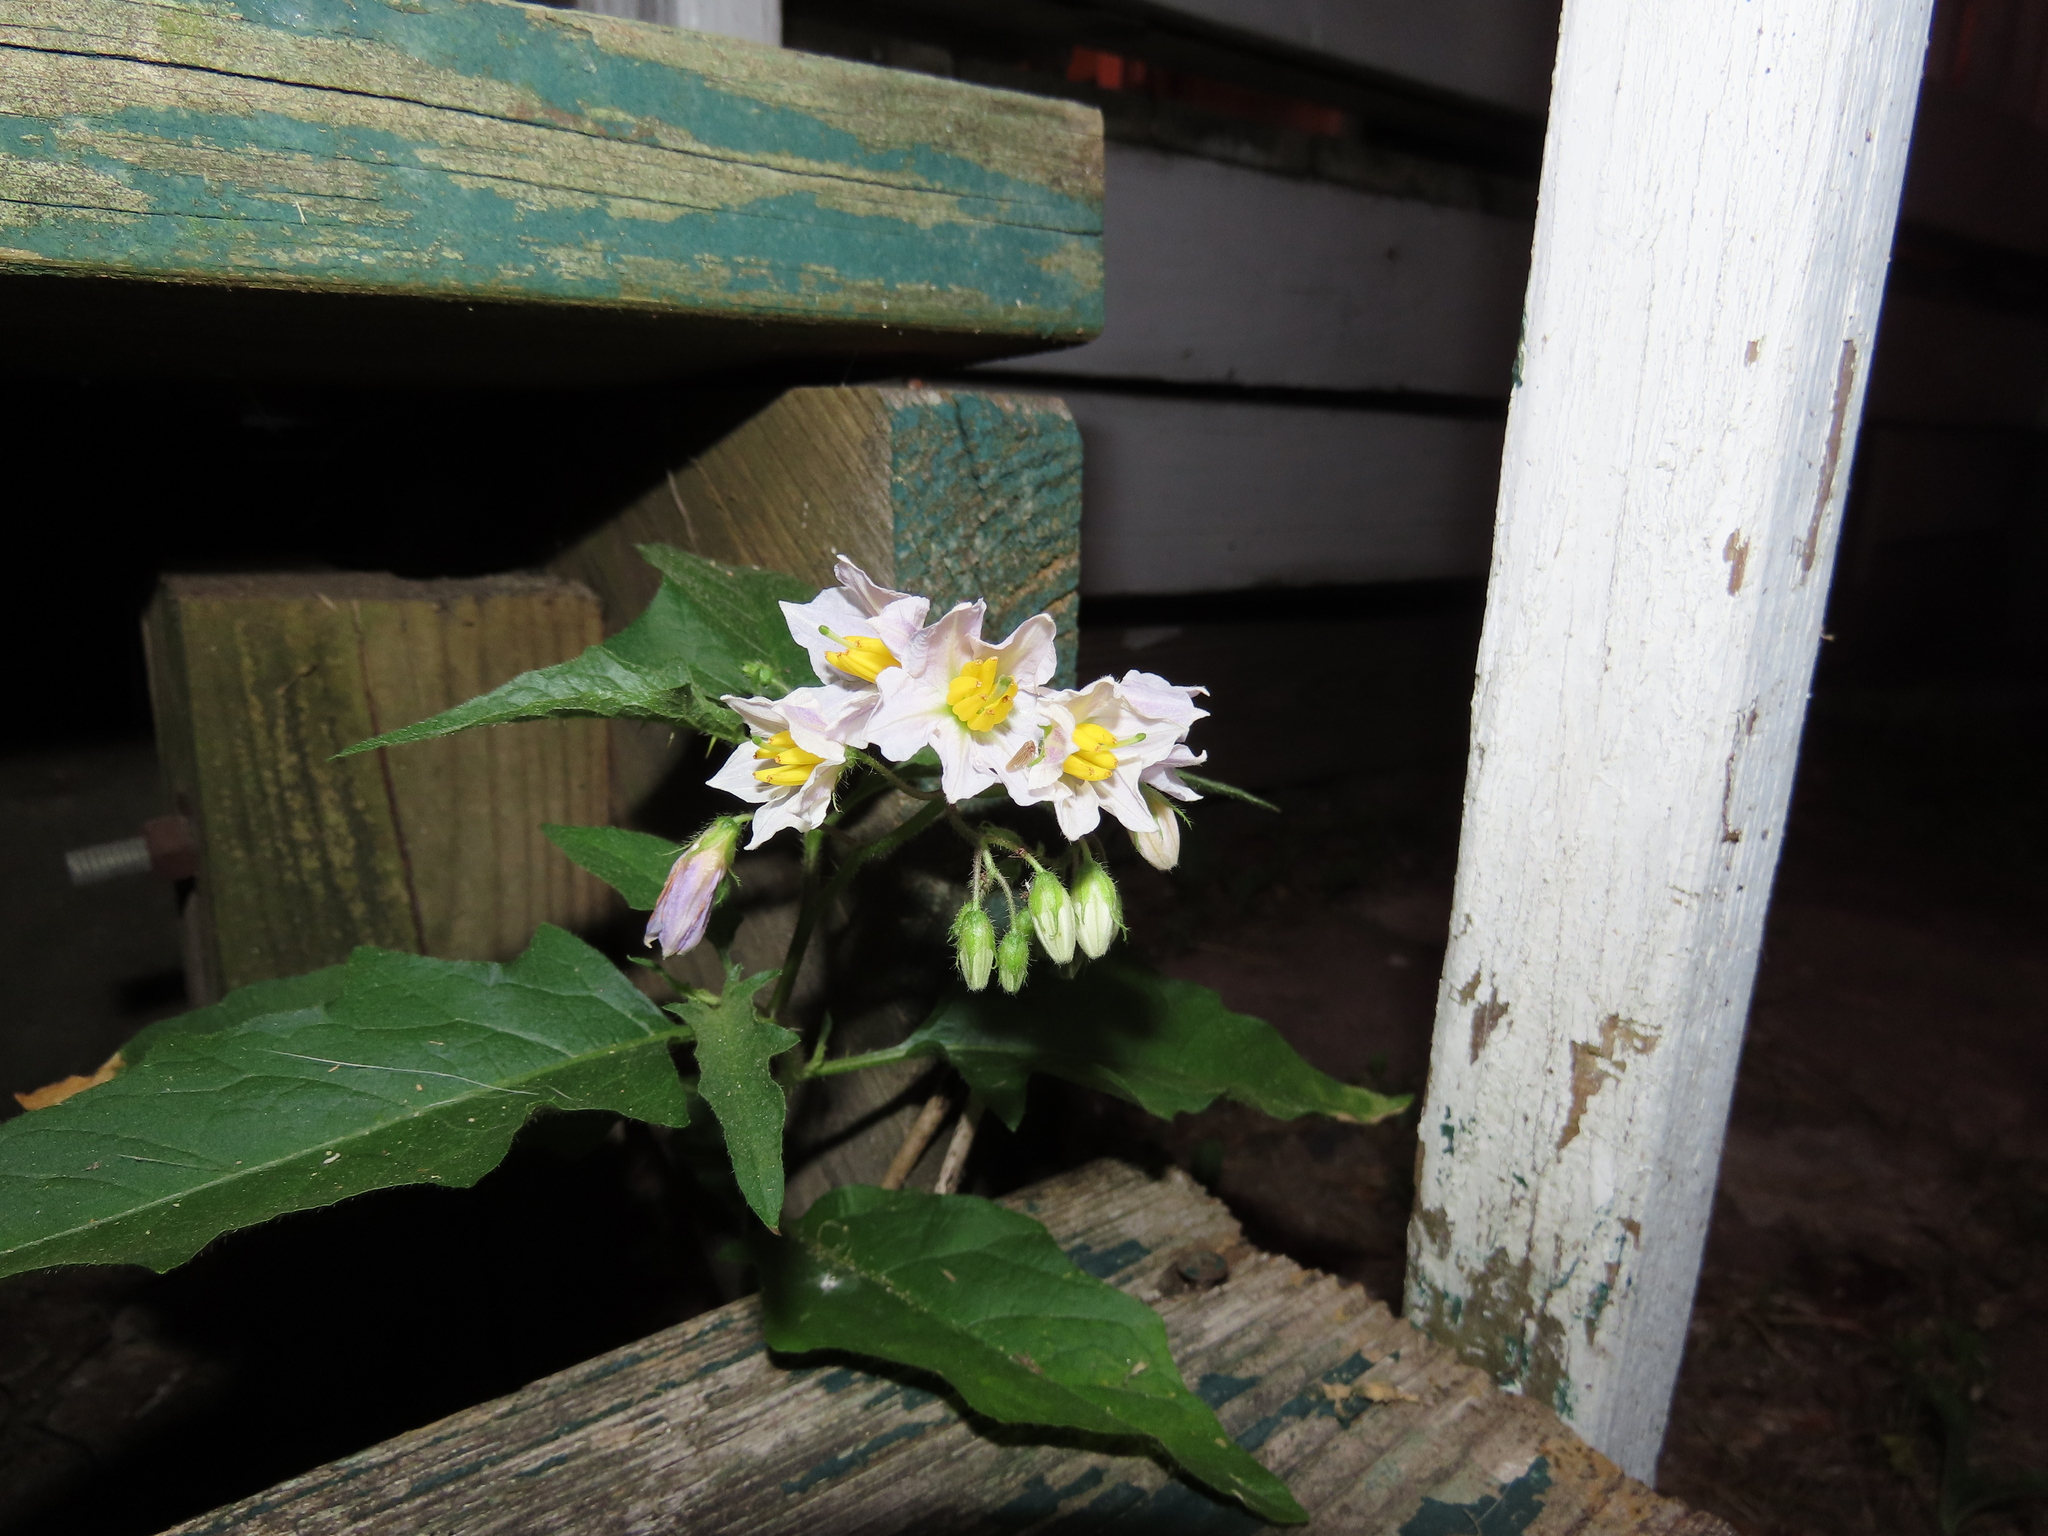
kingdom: Plantae
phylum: Tracheophyta
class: Magnoliopsida
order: Solanales
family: Solanaceae
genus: Solanum
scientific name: Solanum carolinense
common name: Horse-nettle
